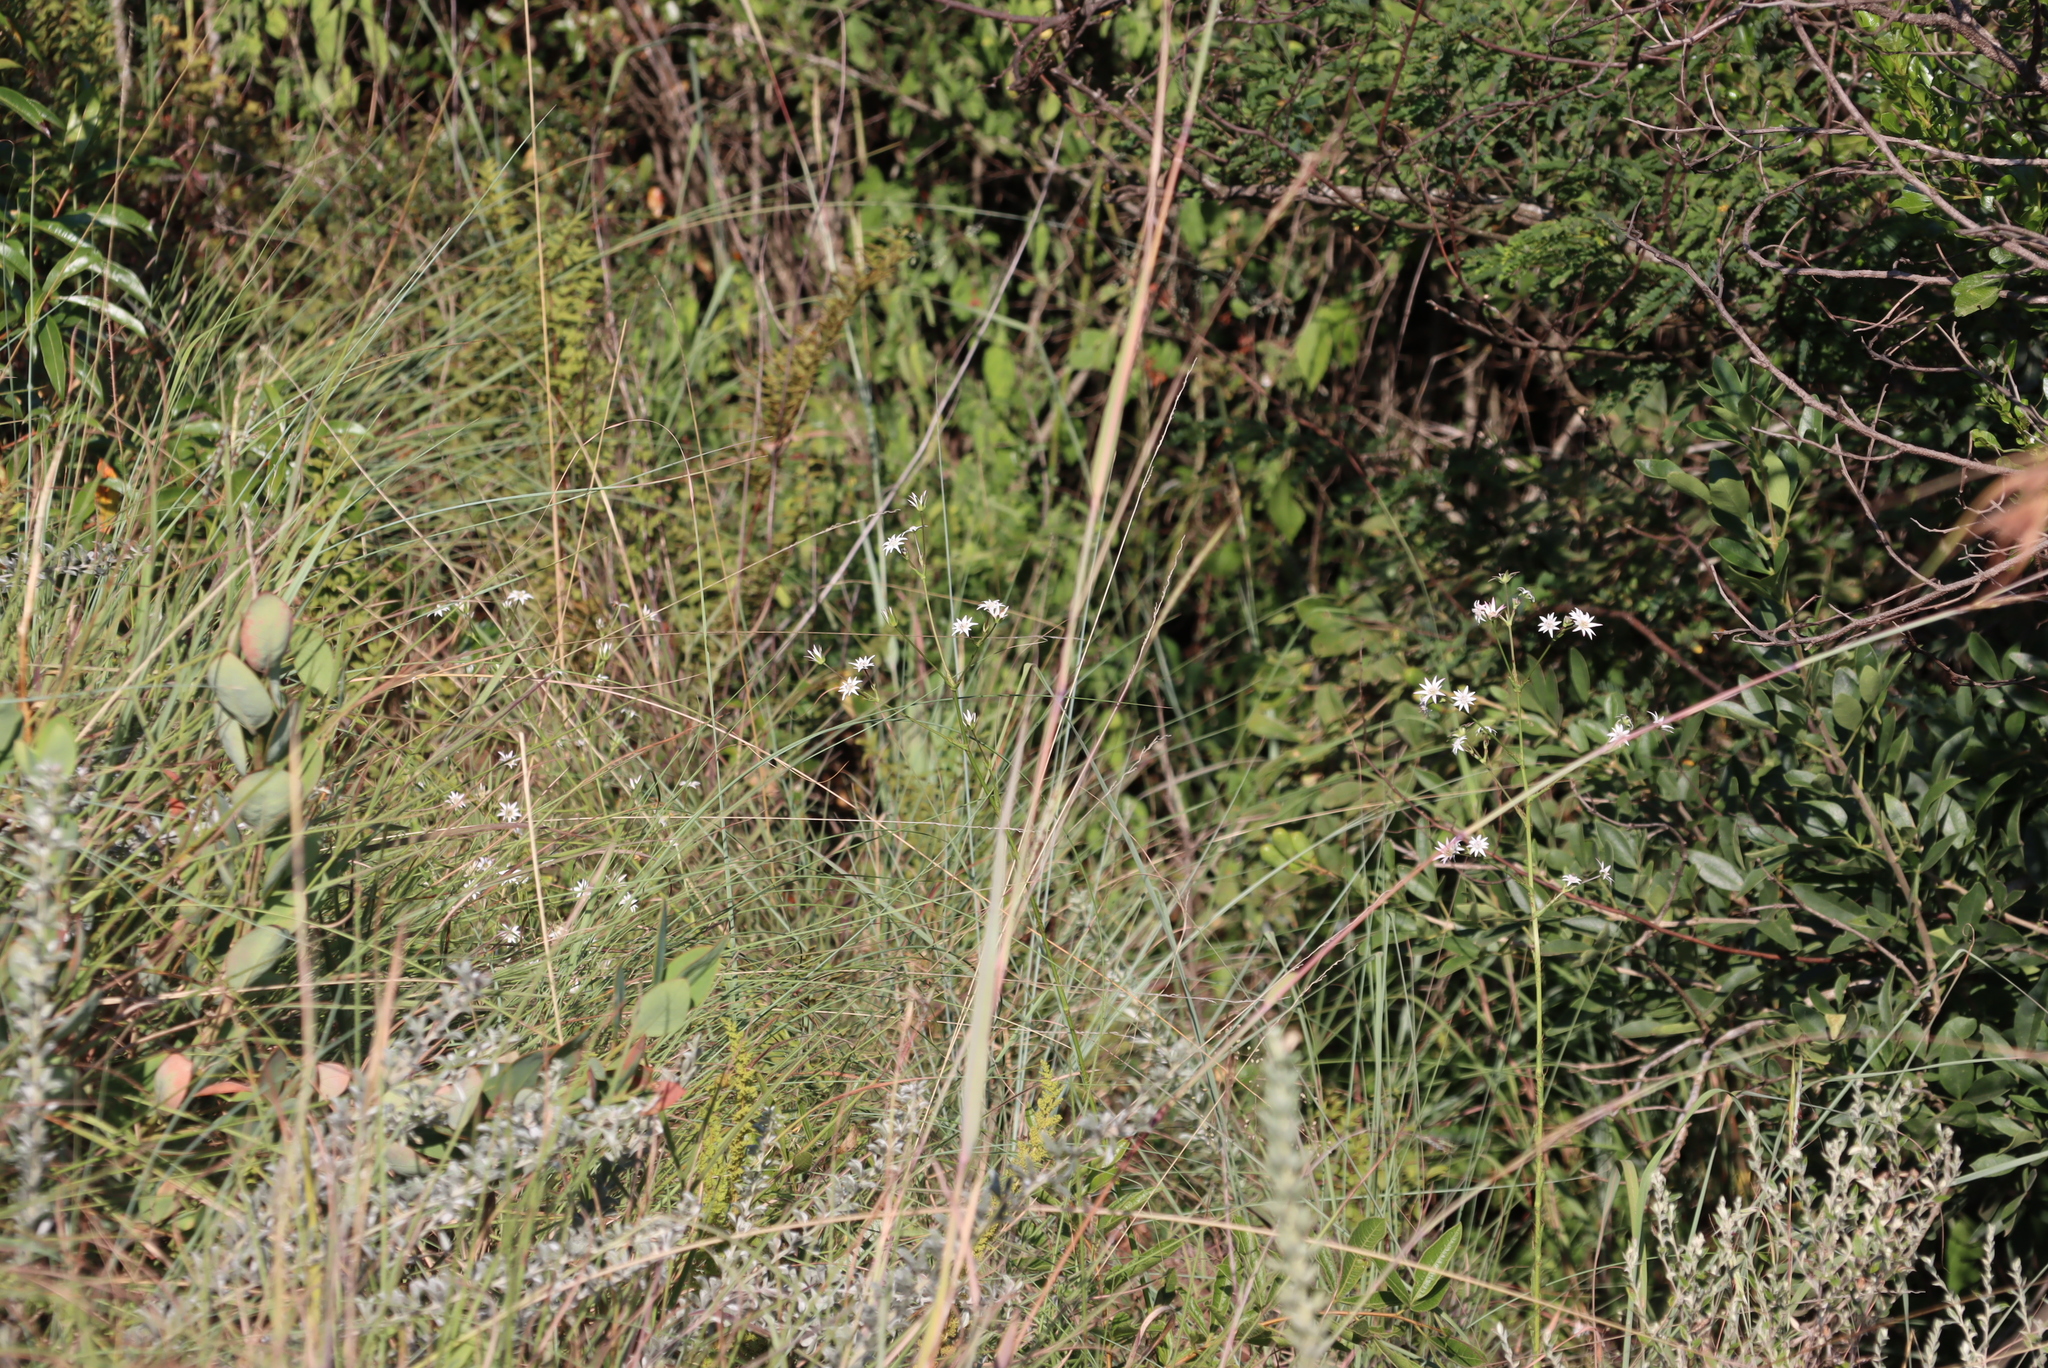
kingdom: Plantae
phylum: Tracheophyta
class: Magnoliopsida
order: Apiales
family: Apiaceae
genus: Alepidea
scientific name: Alepidea peduncularis
